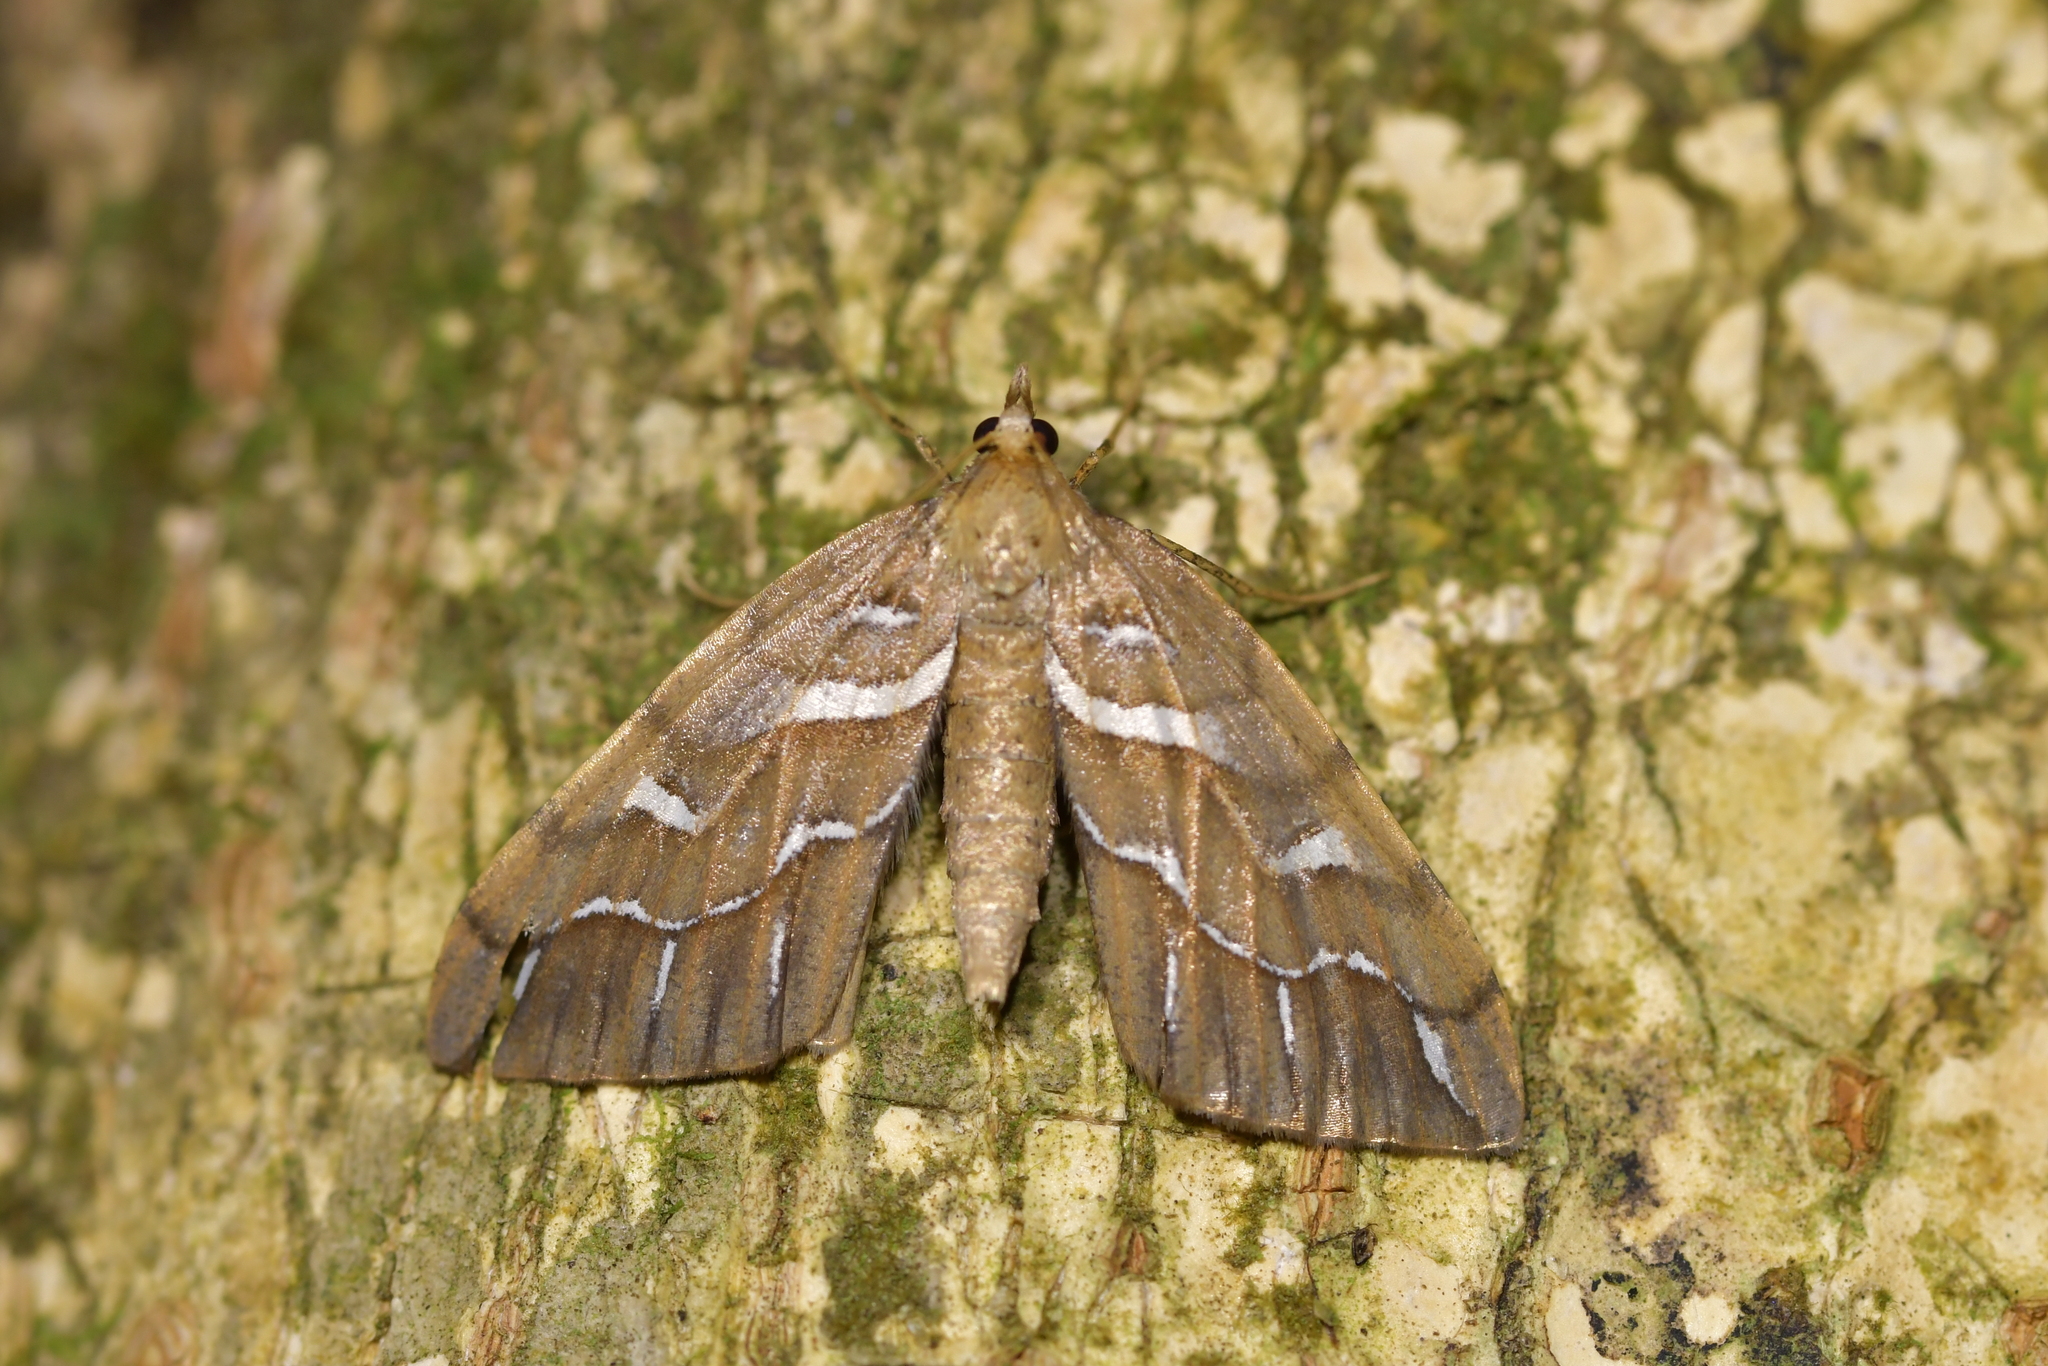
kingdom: Animalia
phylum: Arthropoda
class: Insecta
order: Lepidoptera
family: Geometridae
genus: Chalastra
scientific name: Chalastra aristarcha
